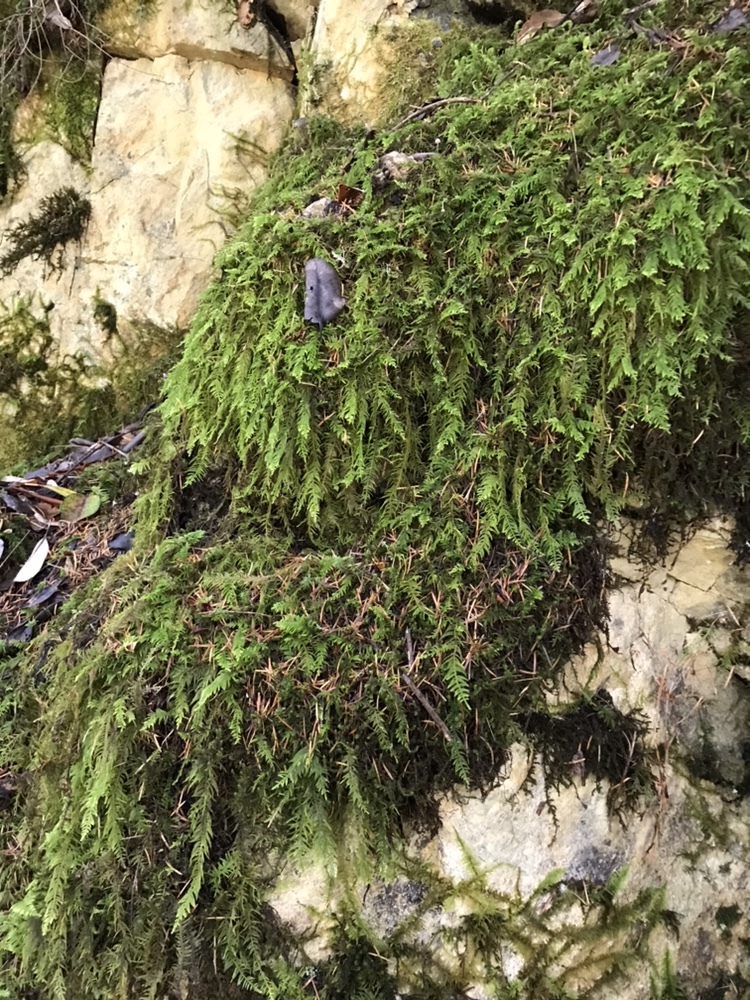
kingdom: Plantae
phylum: Bryophyta
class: Bryopsida
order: Hypnales
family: Brachytheciaceae
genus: Kindbergia
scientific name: Kindbergia oregana
